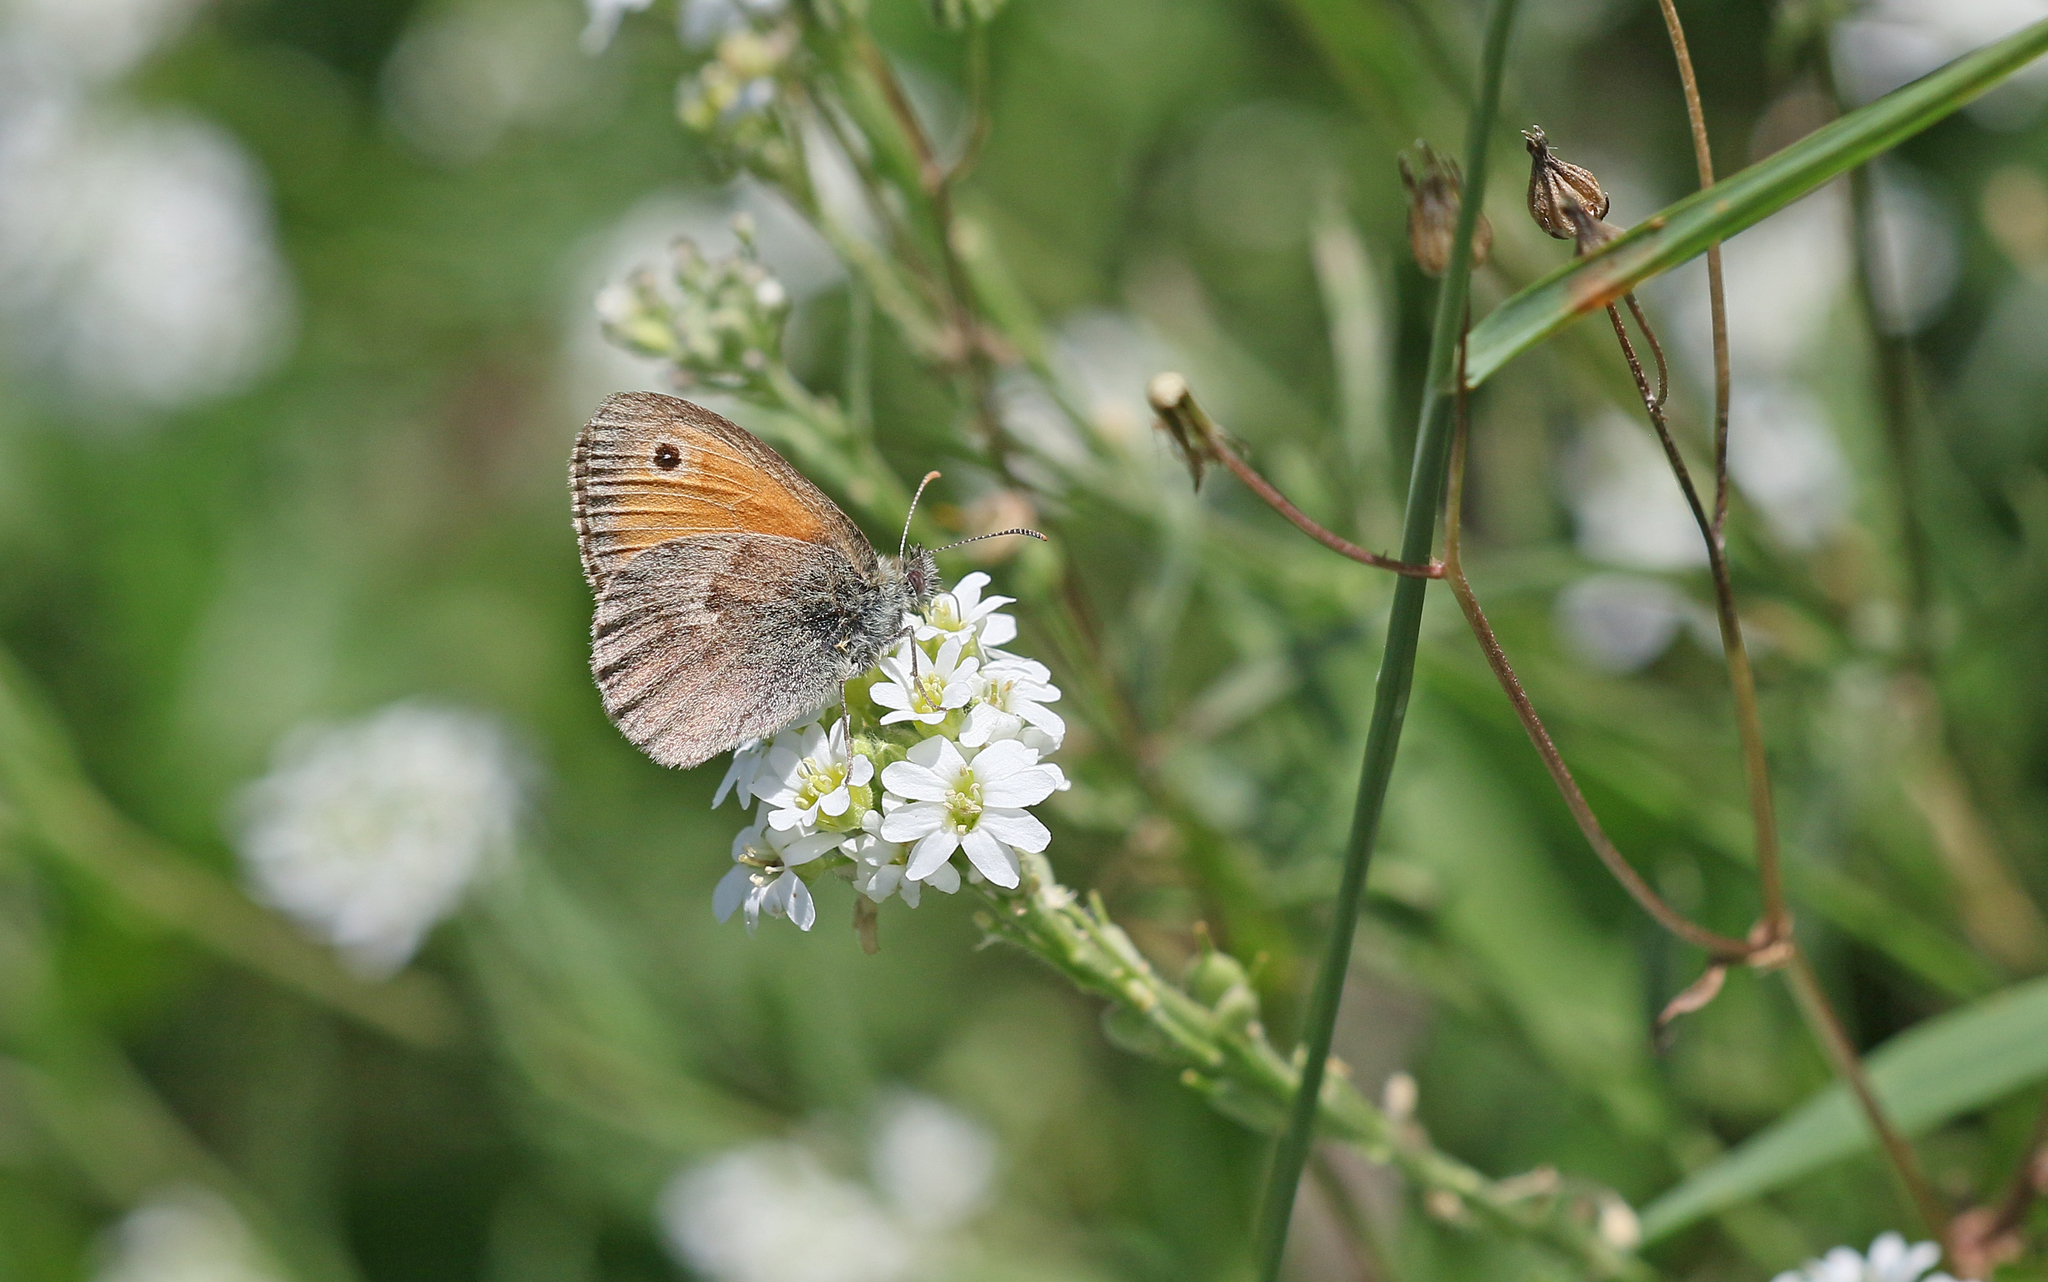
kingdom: Animalia
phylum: Arthropoda
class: Insecta
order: Lepidoptera
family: Nymphalidae
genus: Coenonympha
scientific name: Coenonympha pamphilus
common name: Small heath
